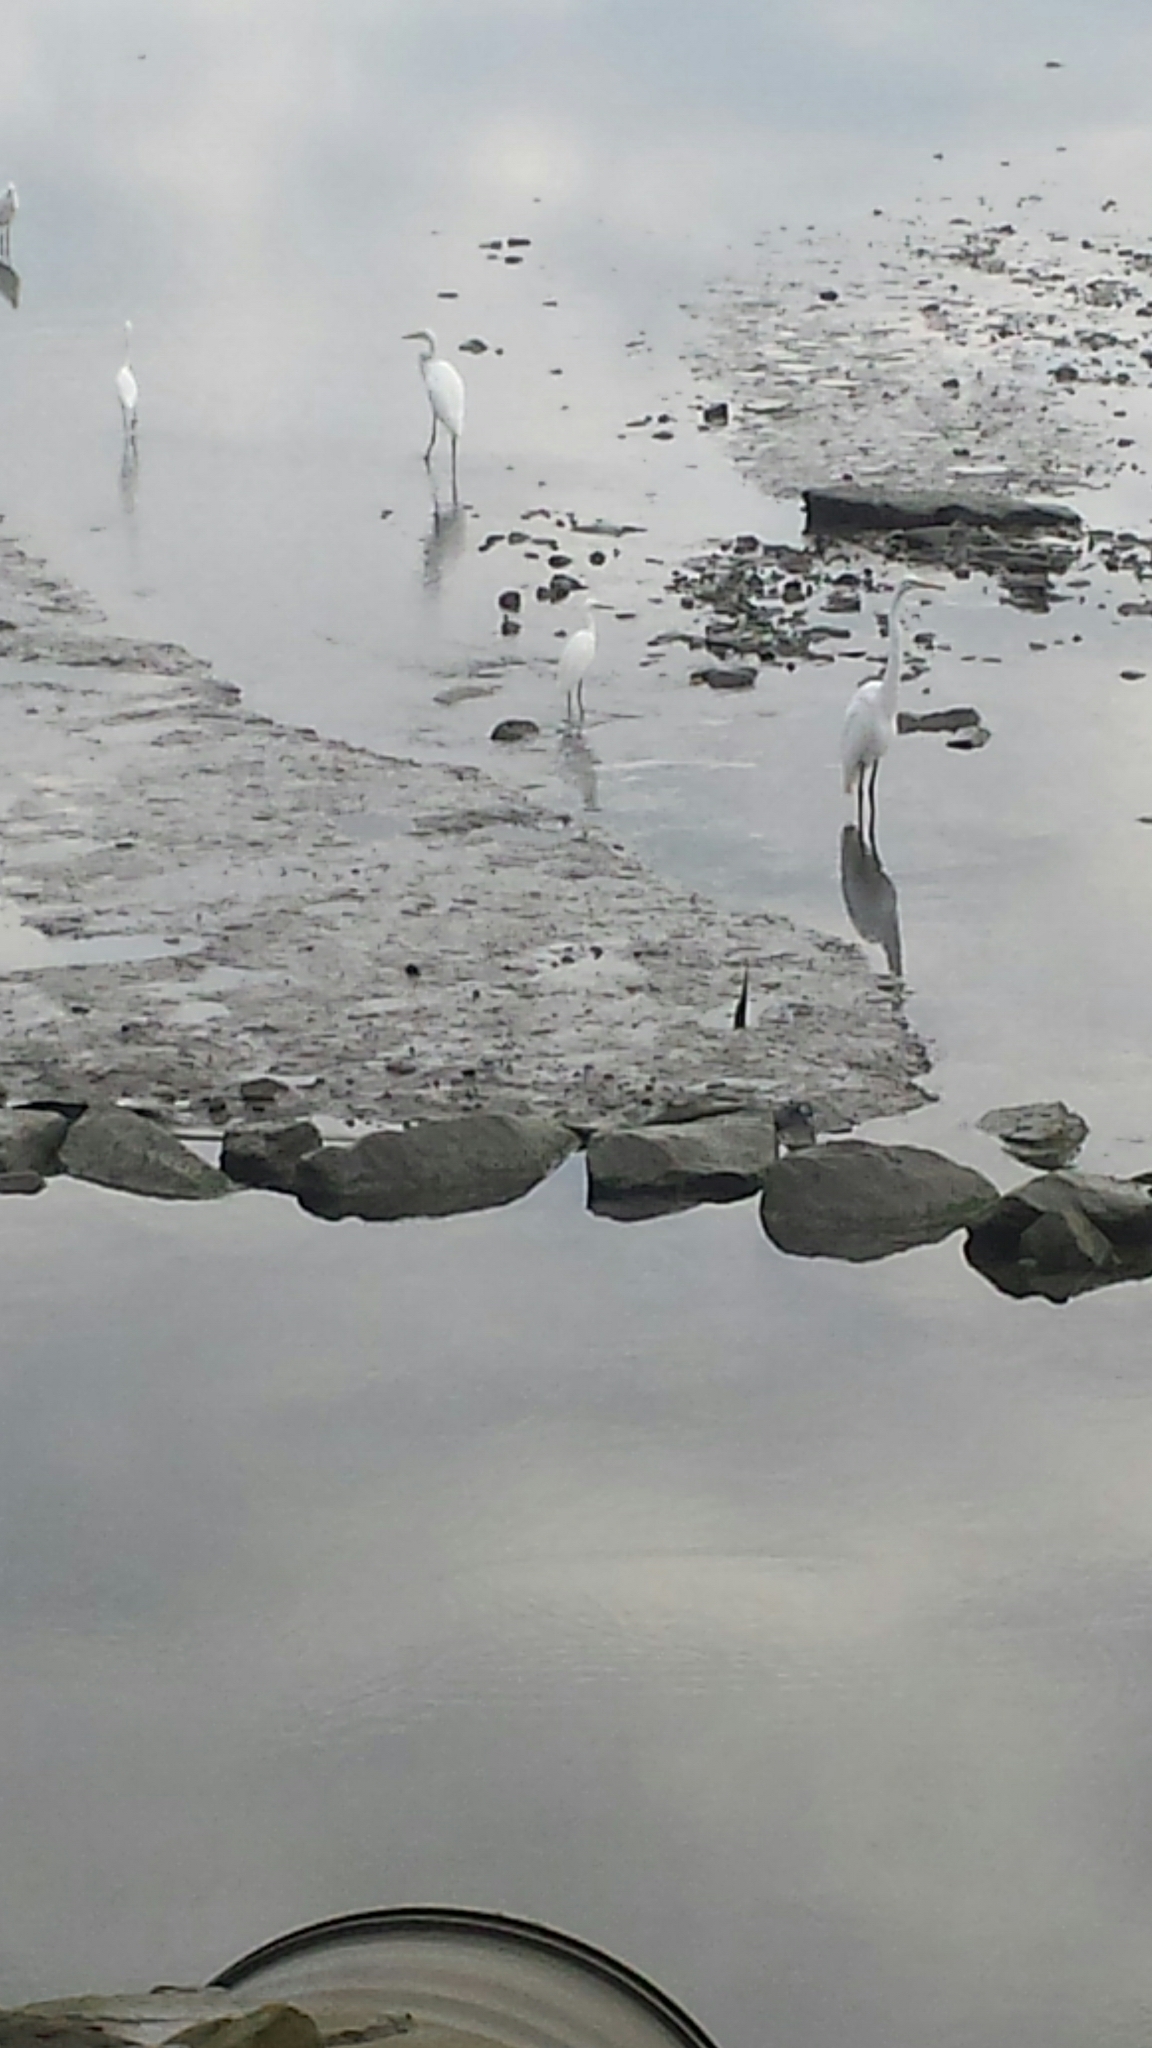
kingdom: Animalia
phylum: Chordata
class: Aves
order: Pelecaniformes
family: Ardeidae
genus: Ardea
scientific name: Ardea alba
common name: Great egret
